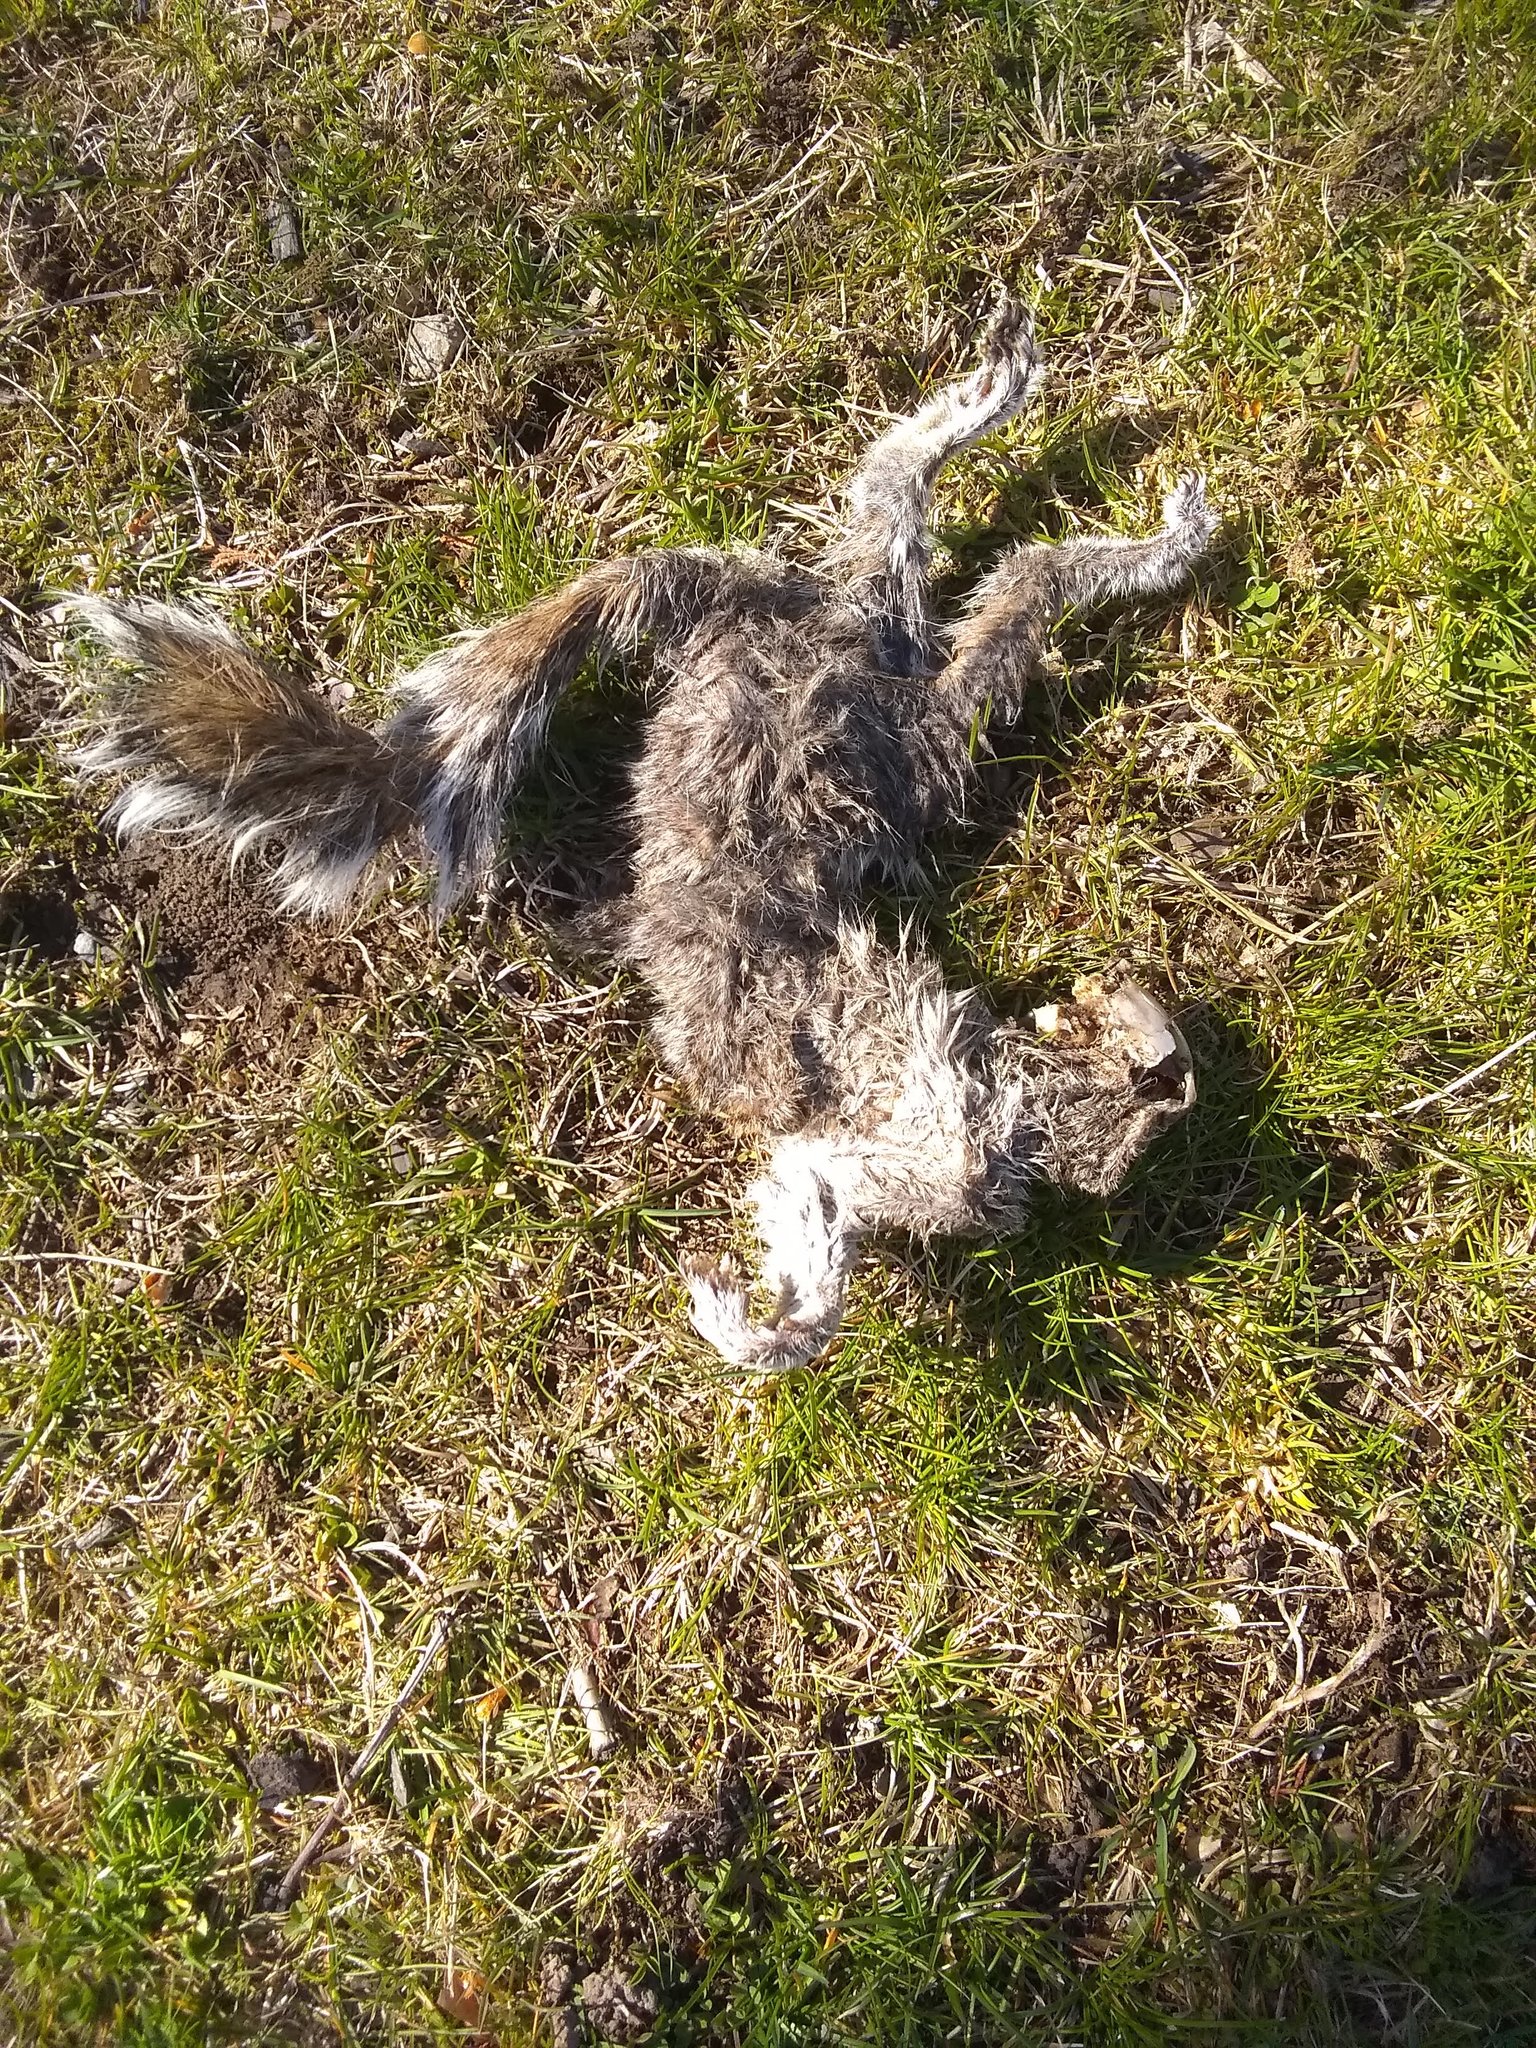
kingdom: Animalia
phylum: Chordata
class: Mammalia
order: Rodentia
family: Sciuridae
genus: Sciurus
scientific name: Sciurus carolinensis
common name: Eastern gray squirrel
